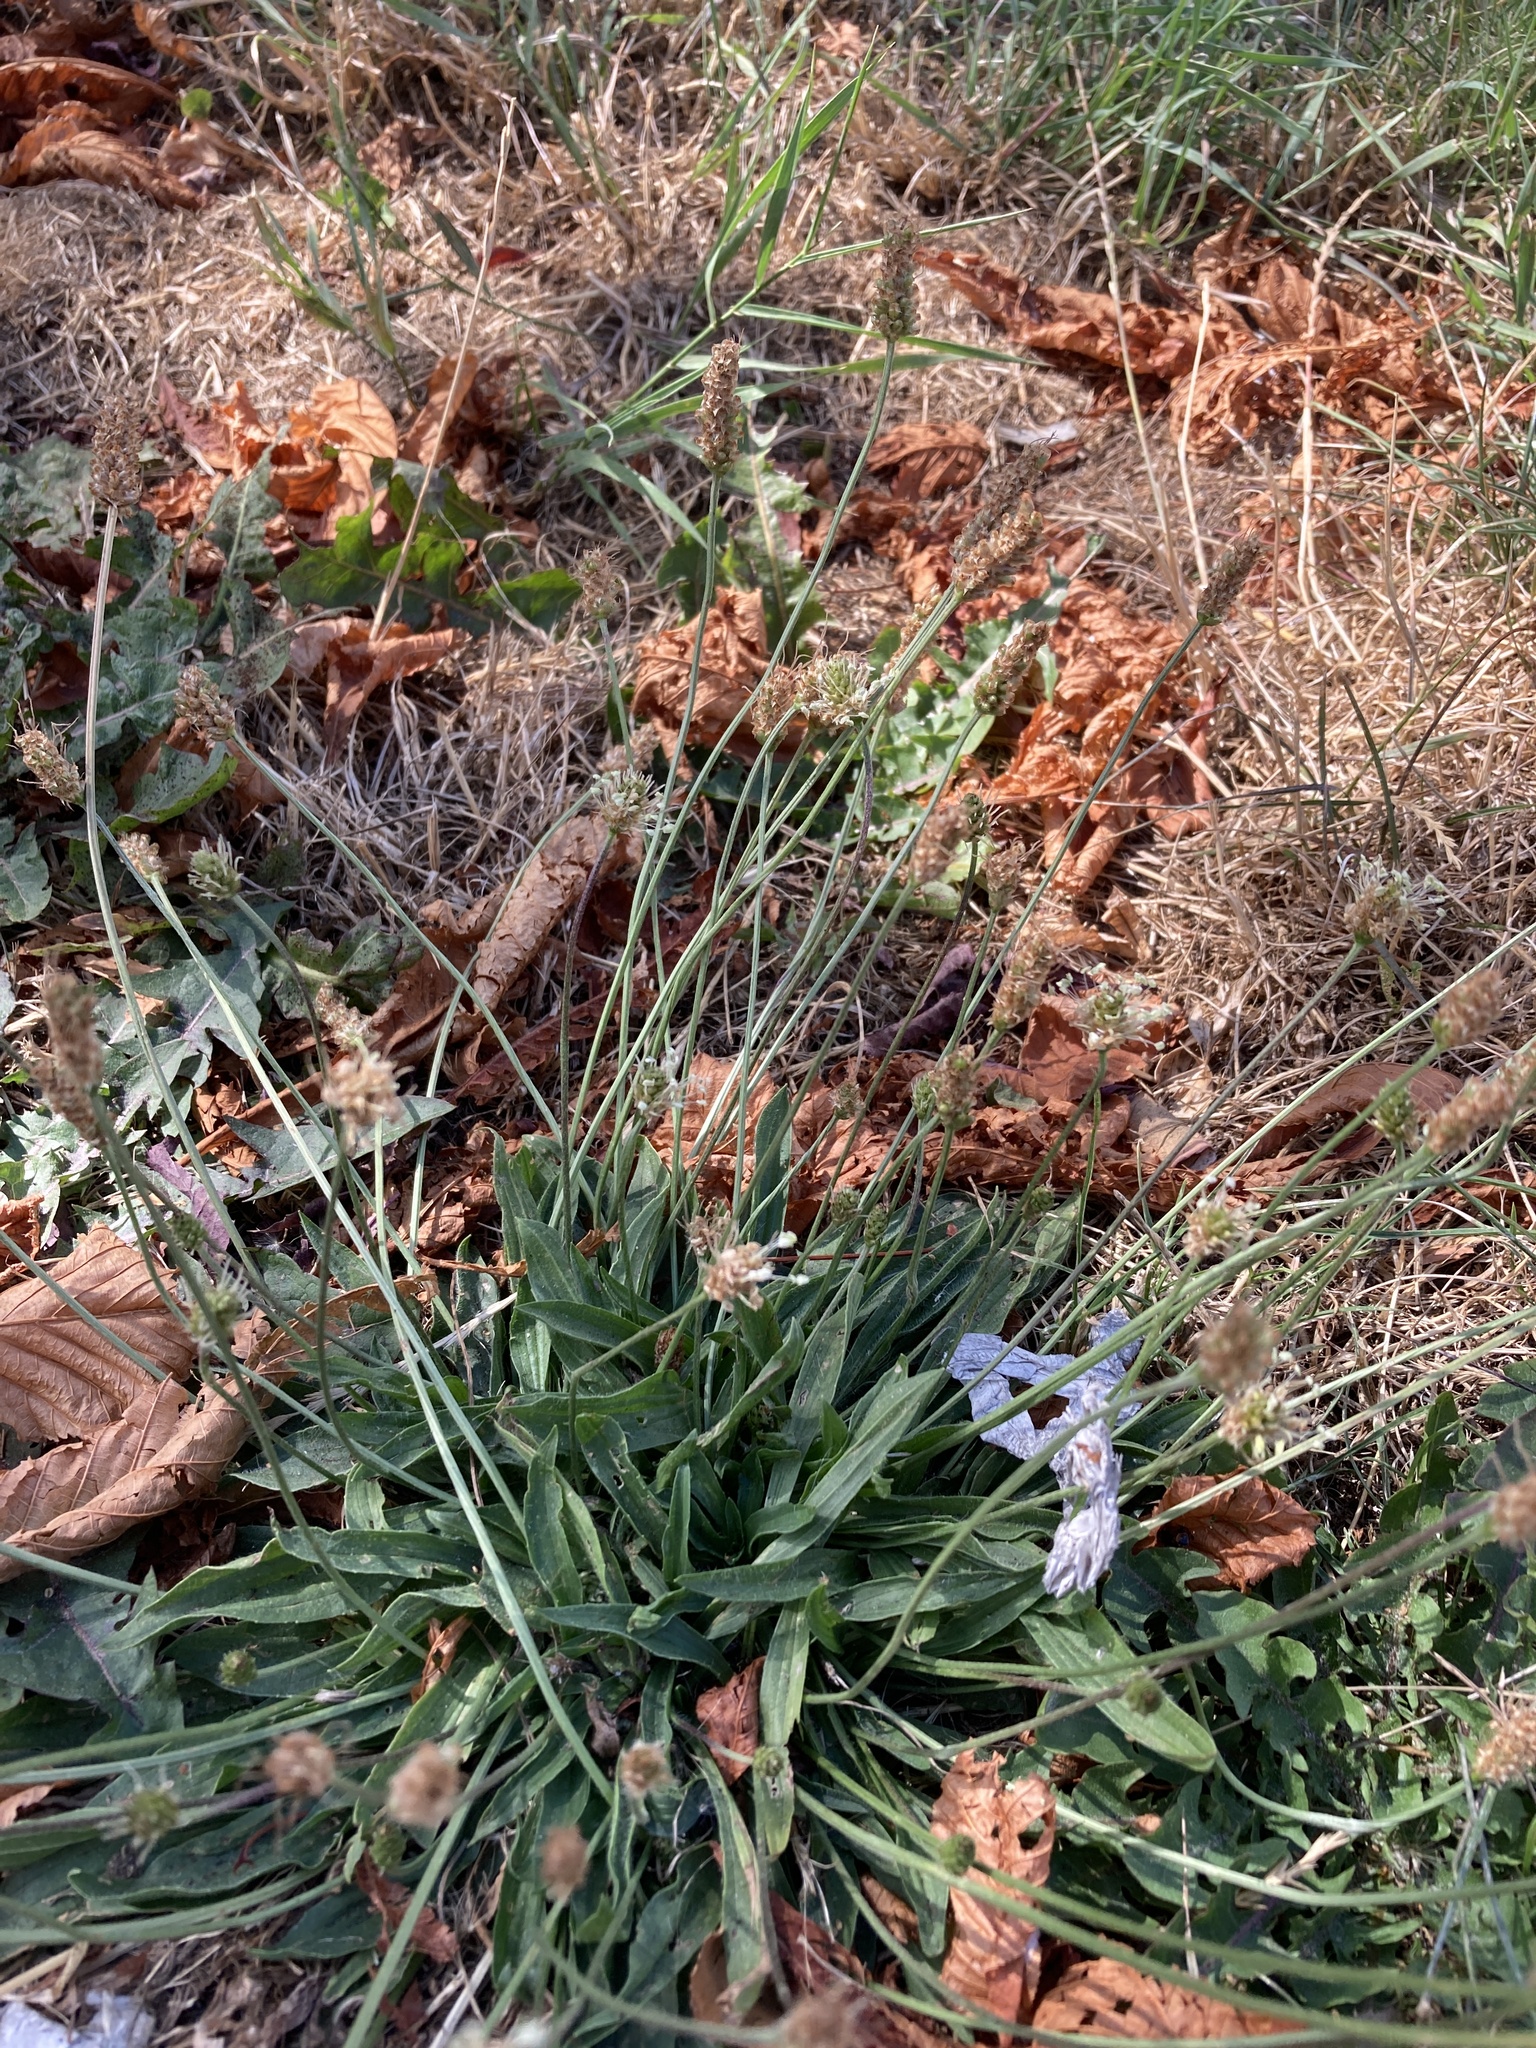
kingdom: Plantae
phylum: Tracheophyta
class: Magnoliopsida
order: Lamiales
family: Plantaginaceae
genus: Plantago
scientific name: Plantago lanceolata
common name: Ribwort plantain
